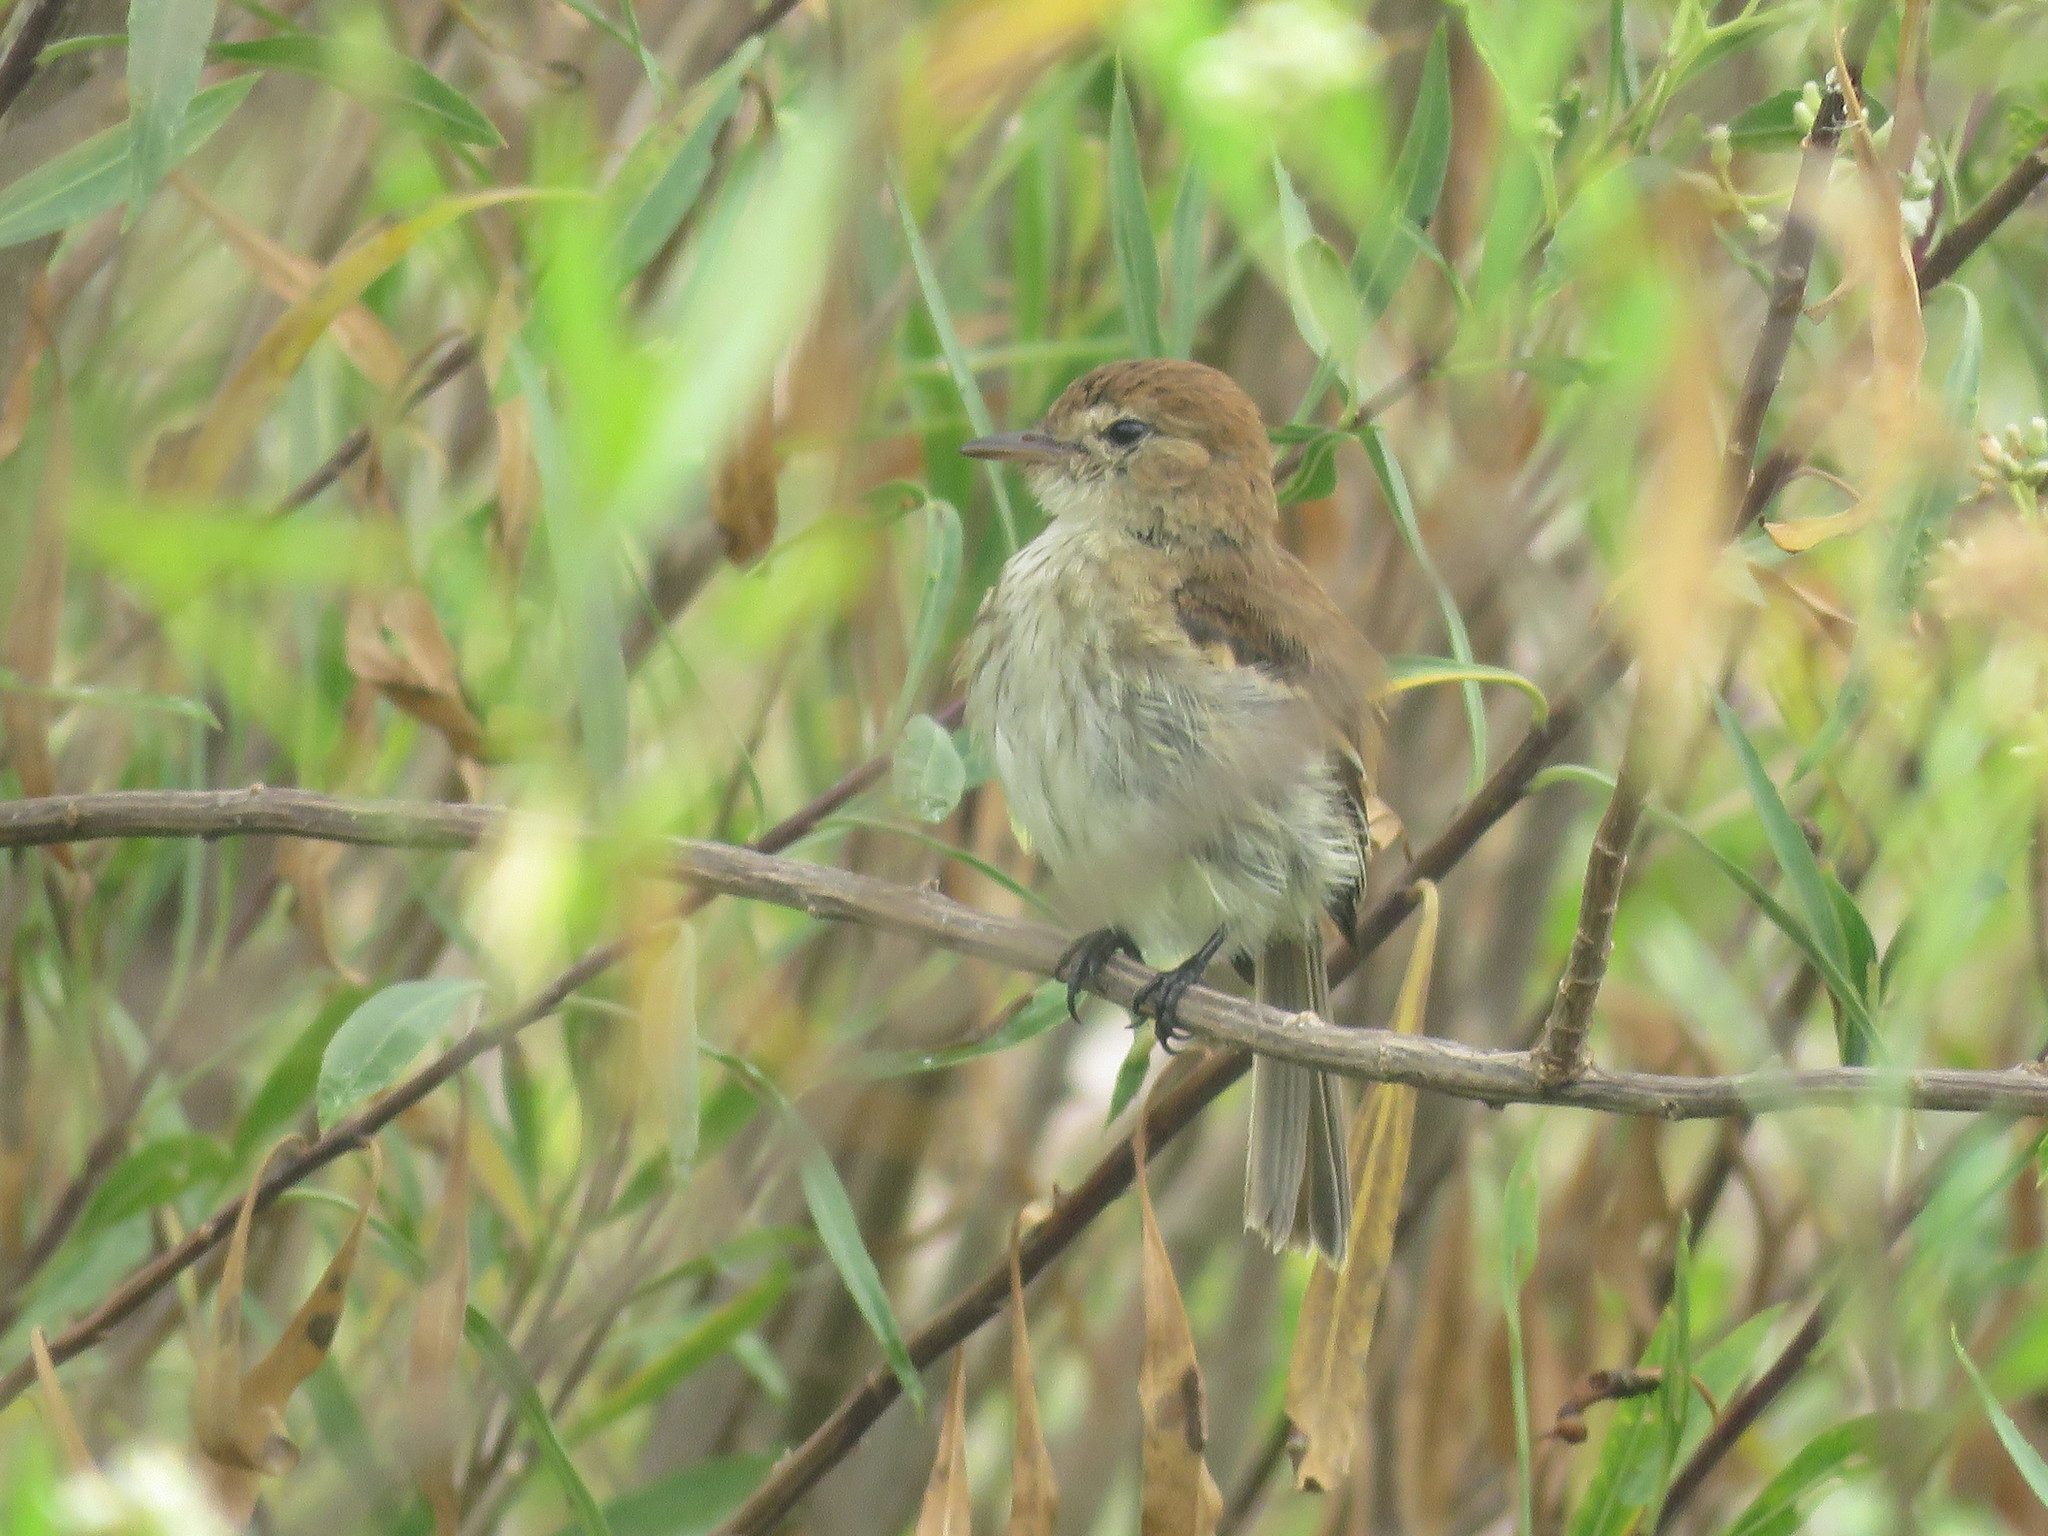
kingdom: Animalia
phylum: Chordata
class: Aves
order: Passeriformes
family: Tyrannidae
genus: Myiophobus
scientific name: Myiophobus fasciatus
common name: Bran-colored flycatcher
